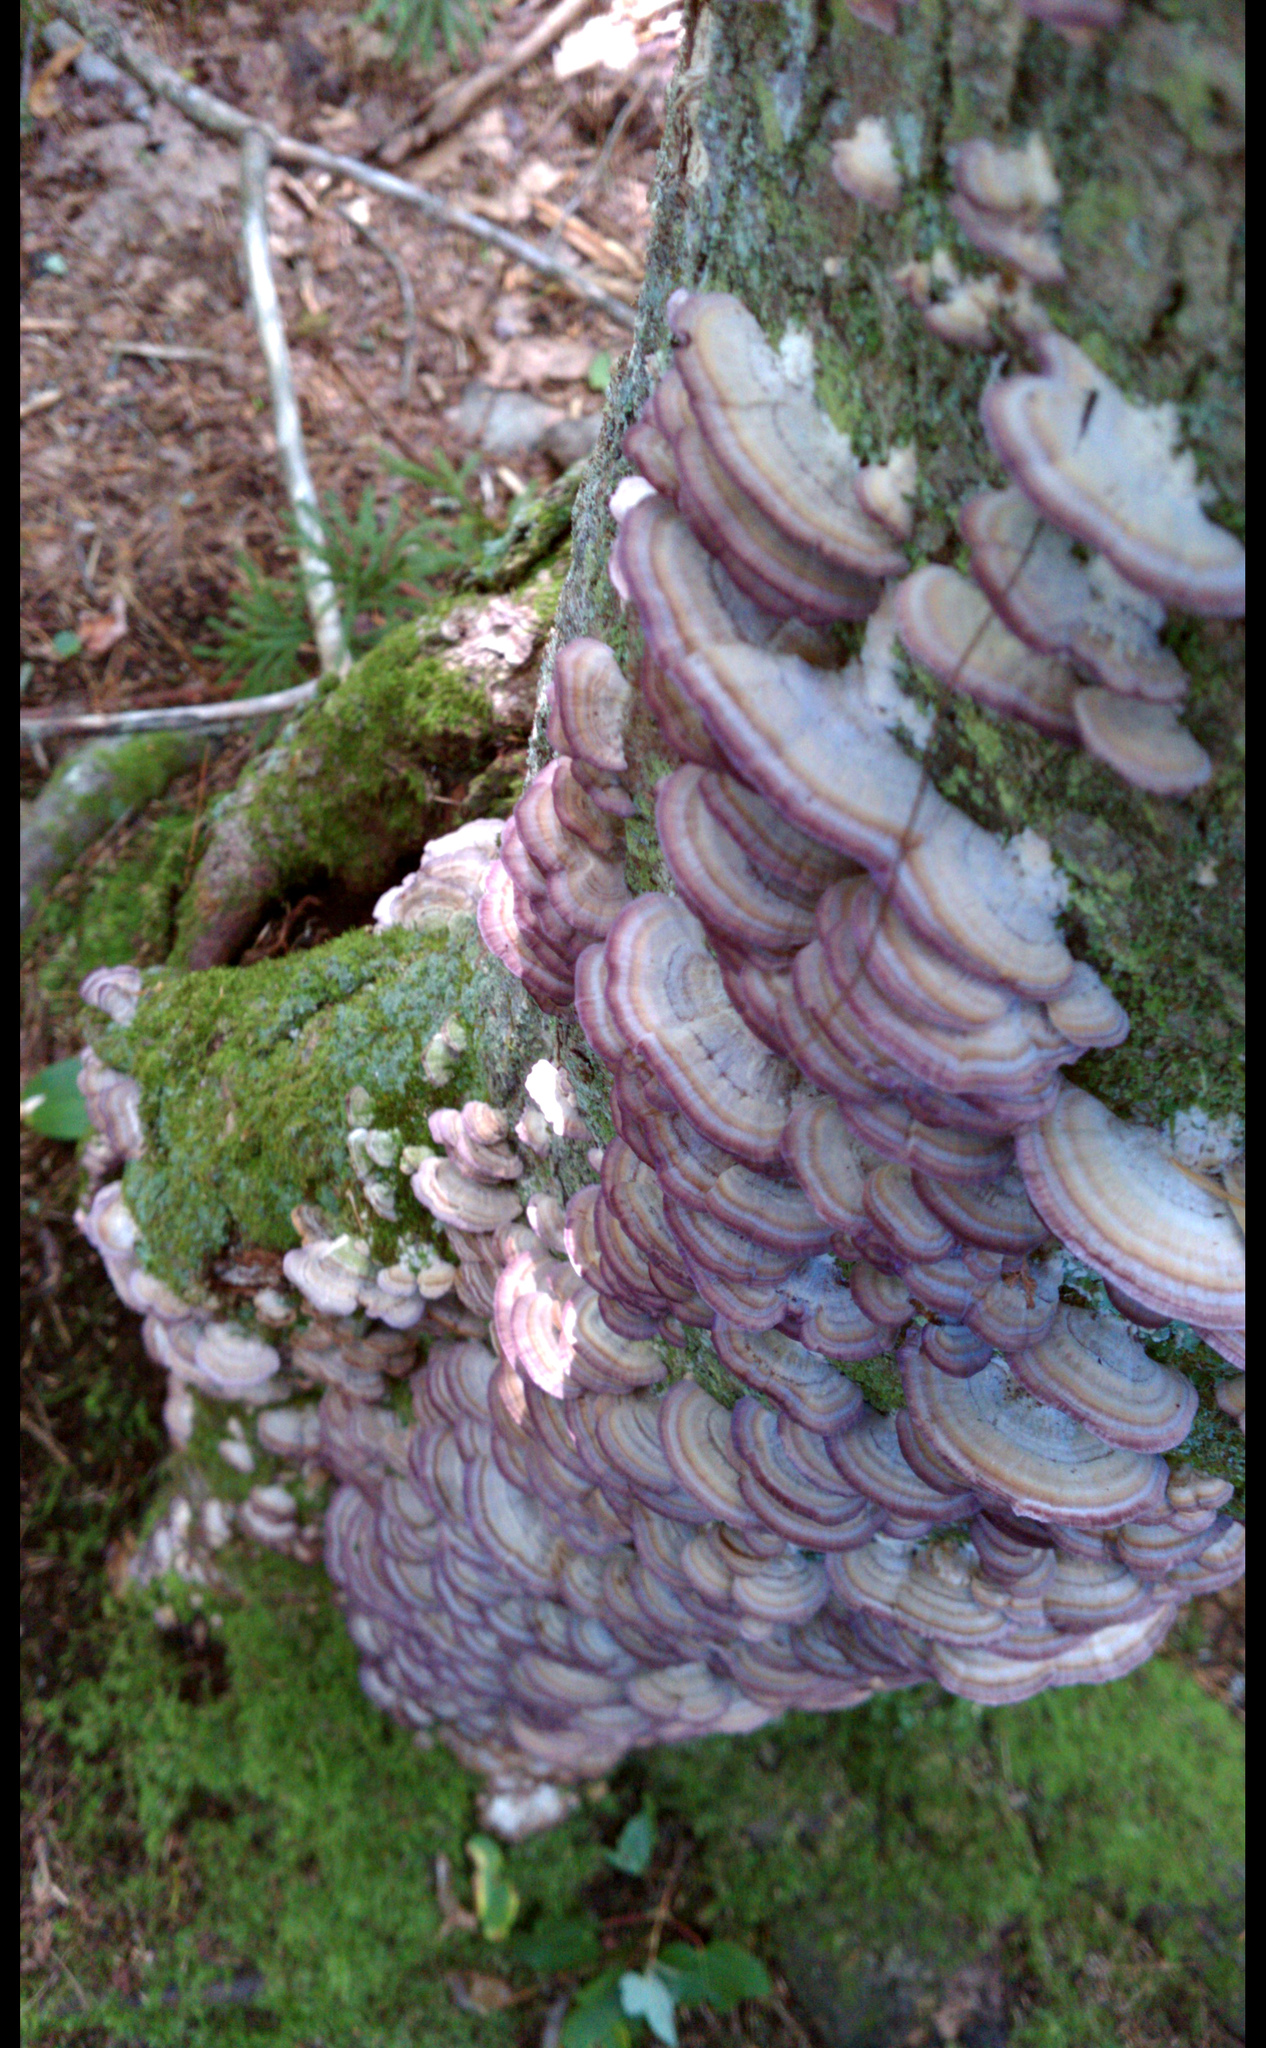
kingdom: Fungi
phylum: Basidiomycota
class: Agaricomycetes
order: Hymenochaetales
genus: Trichaptum
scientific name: Trichaptum biforme
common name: Violet-toothed polypore
